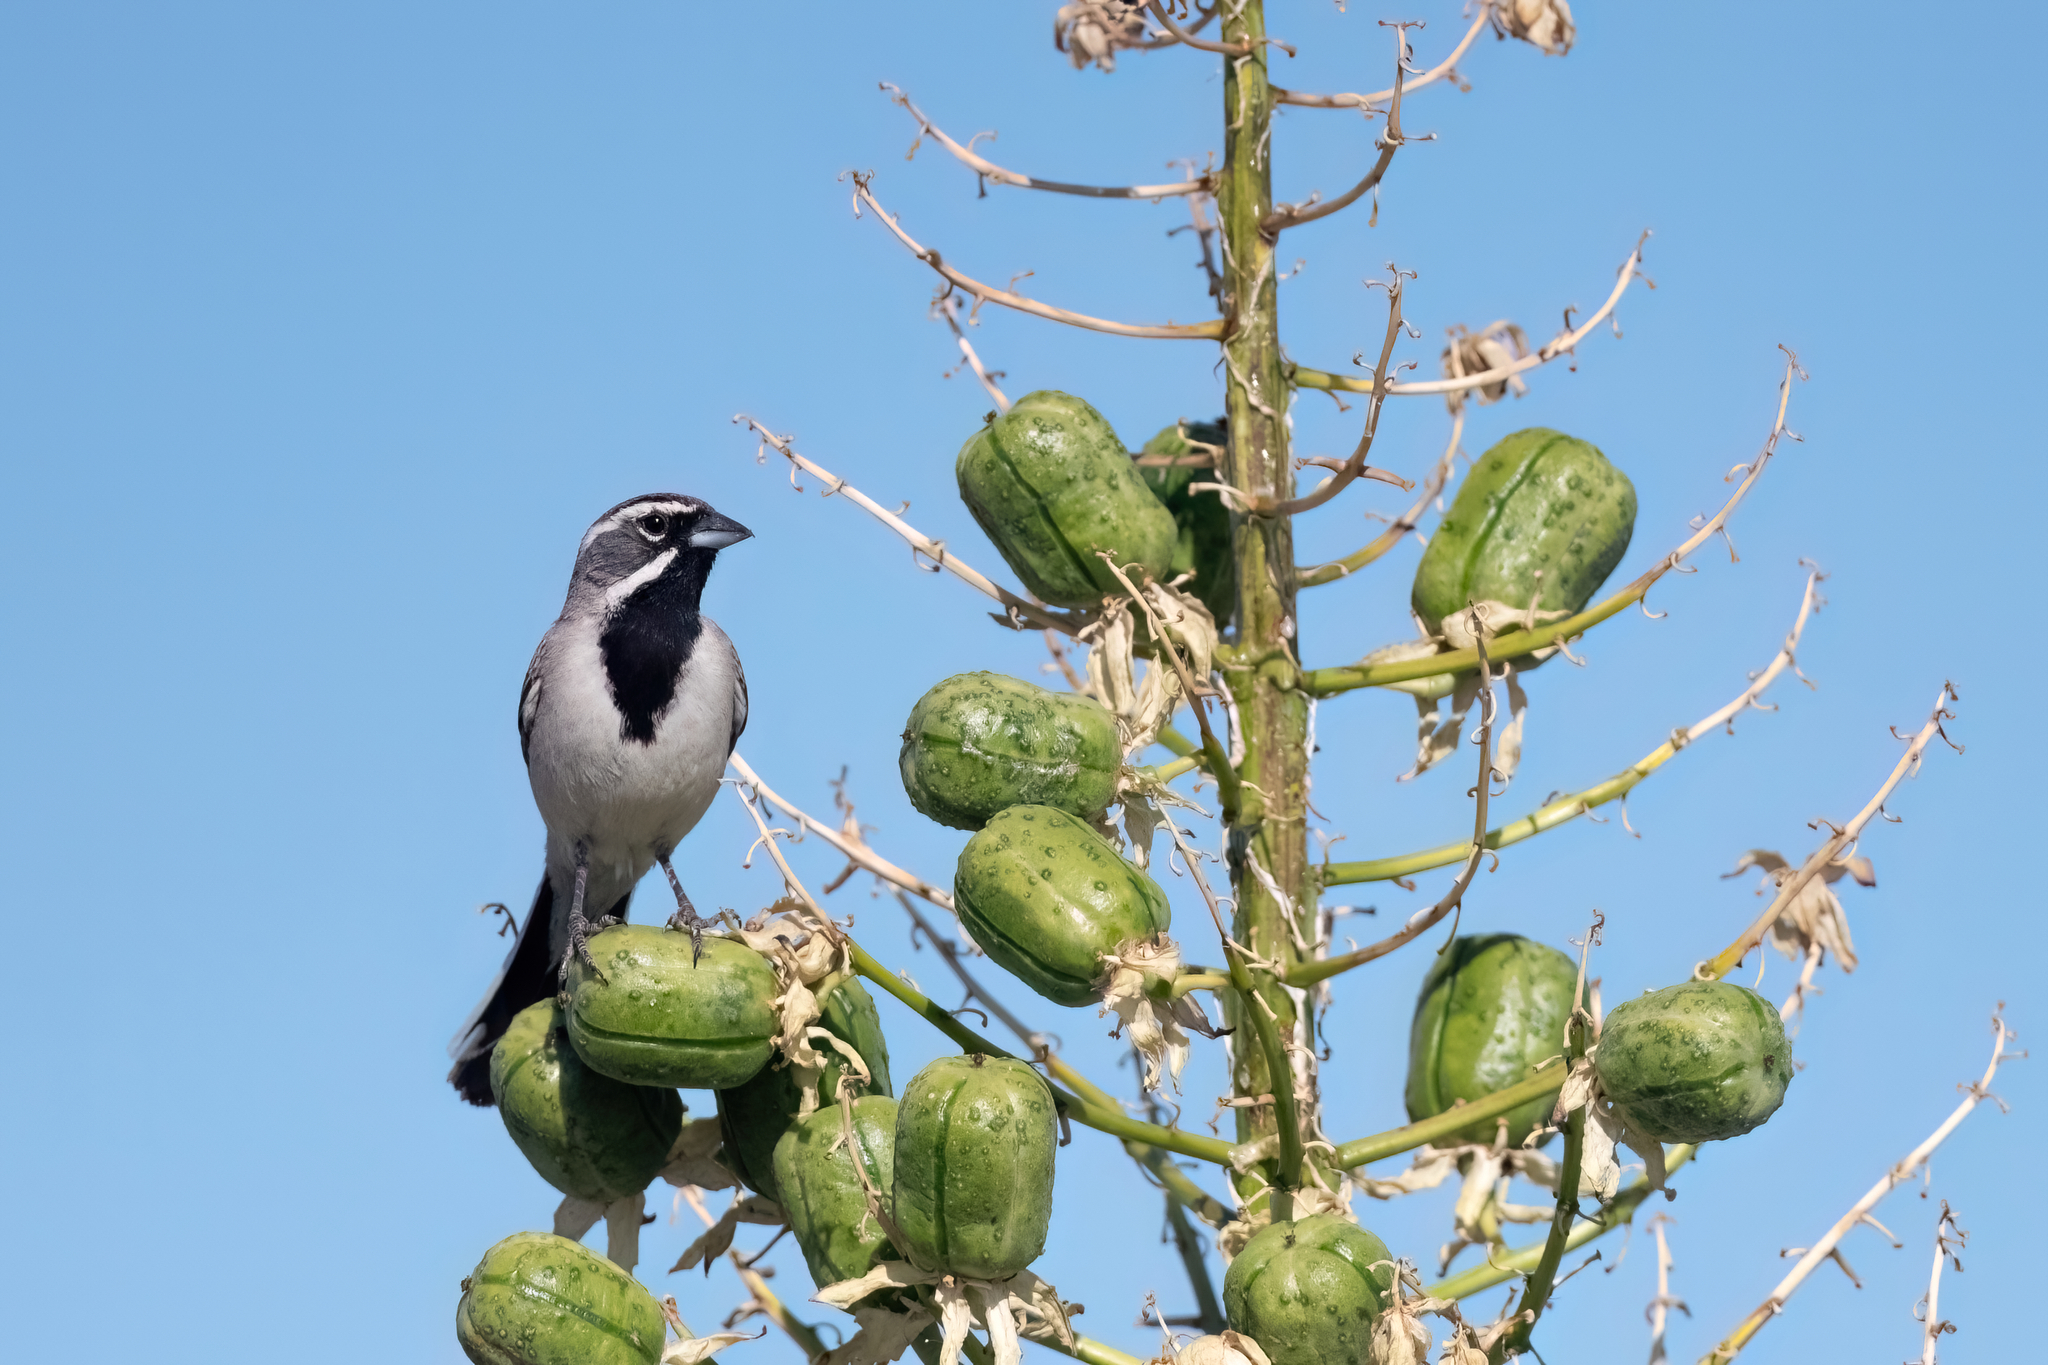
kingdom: Animalia
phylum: Chordata
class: Aves
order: Passeriformes
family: Passerellidae
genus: Amphispiza
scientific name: Amphispiza bilineata
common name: Black-throated sparrow
